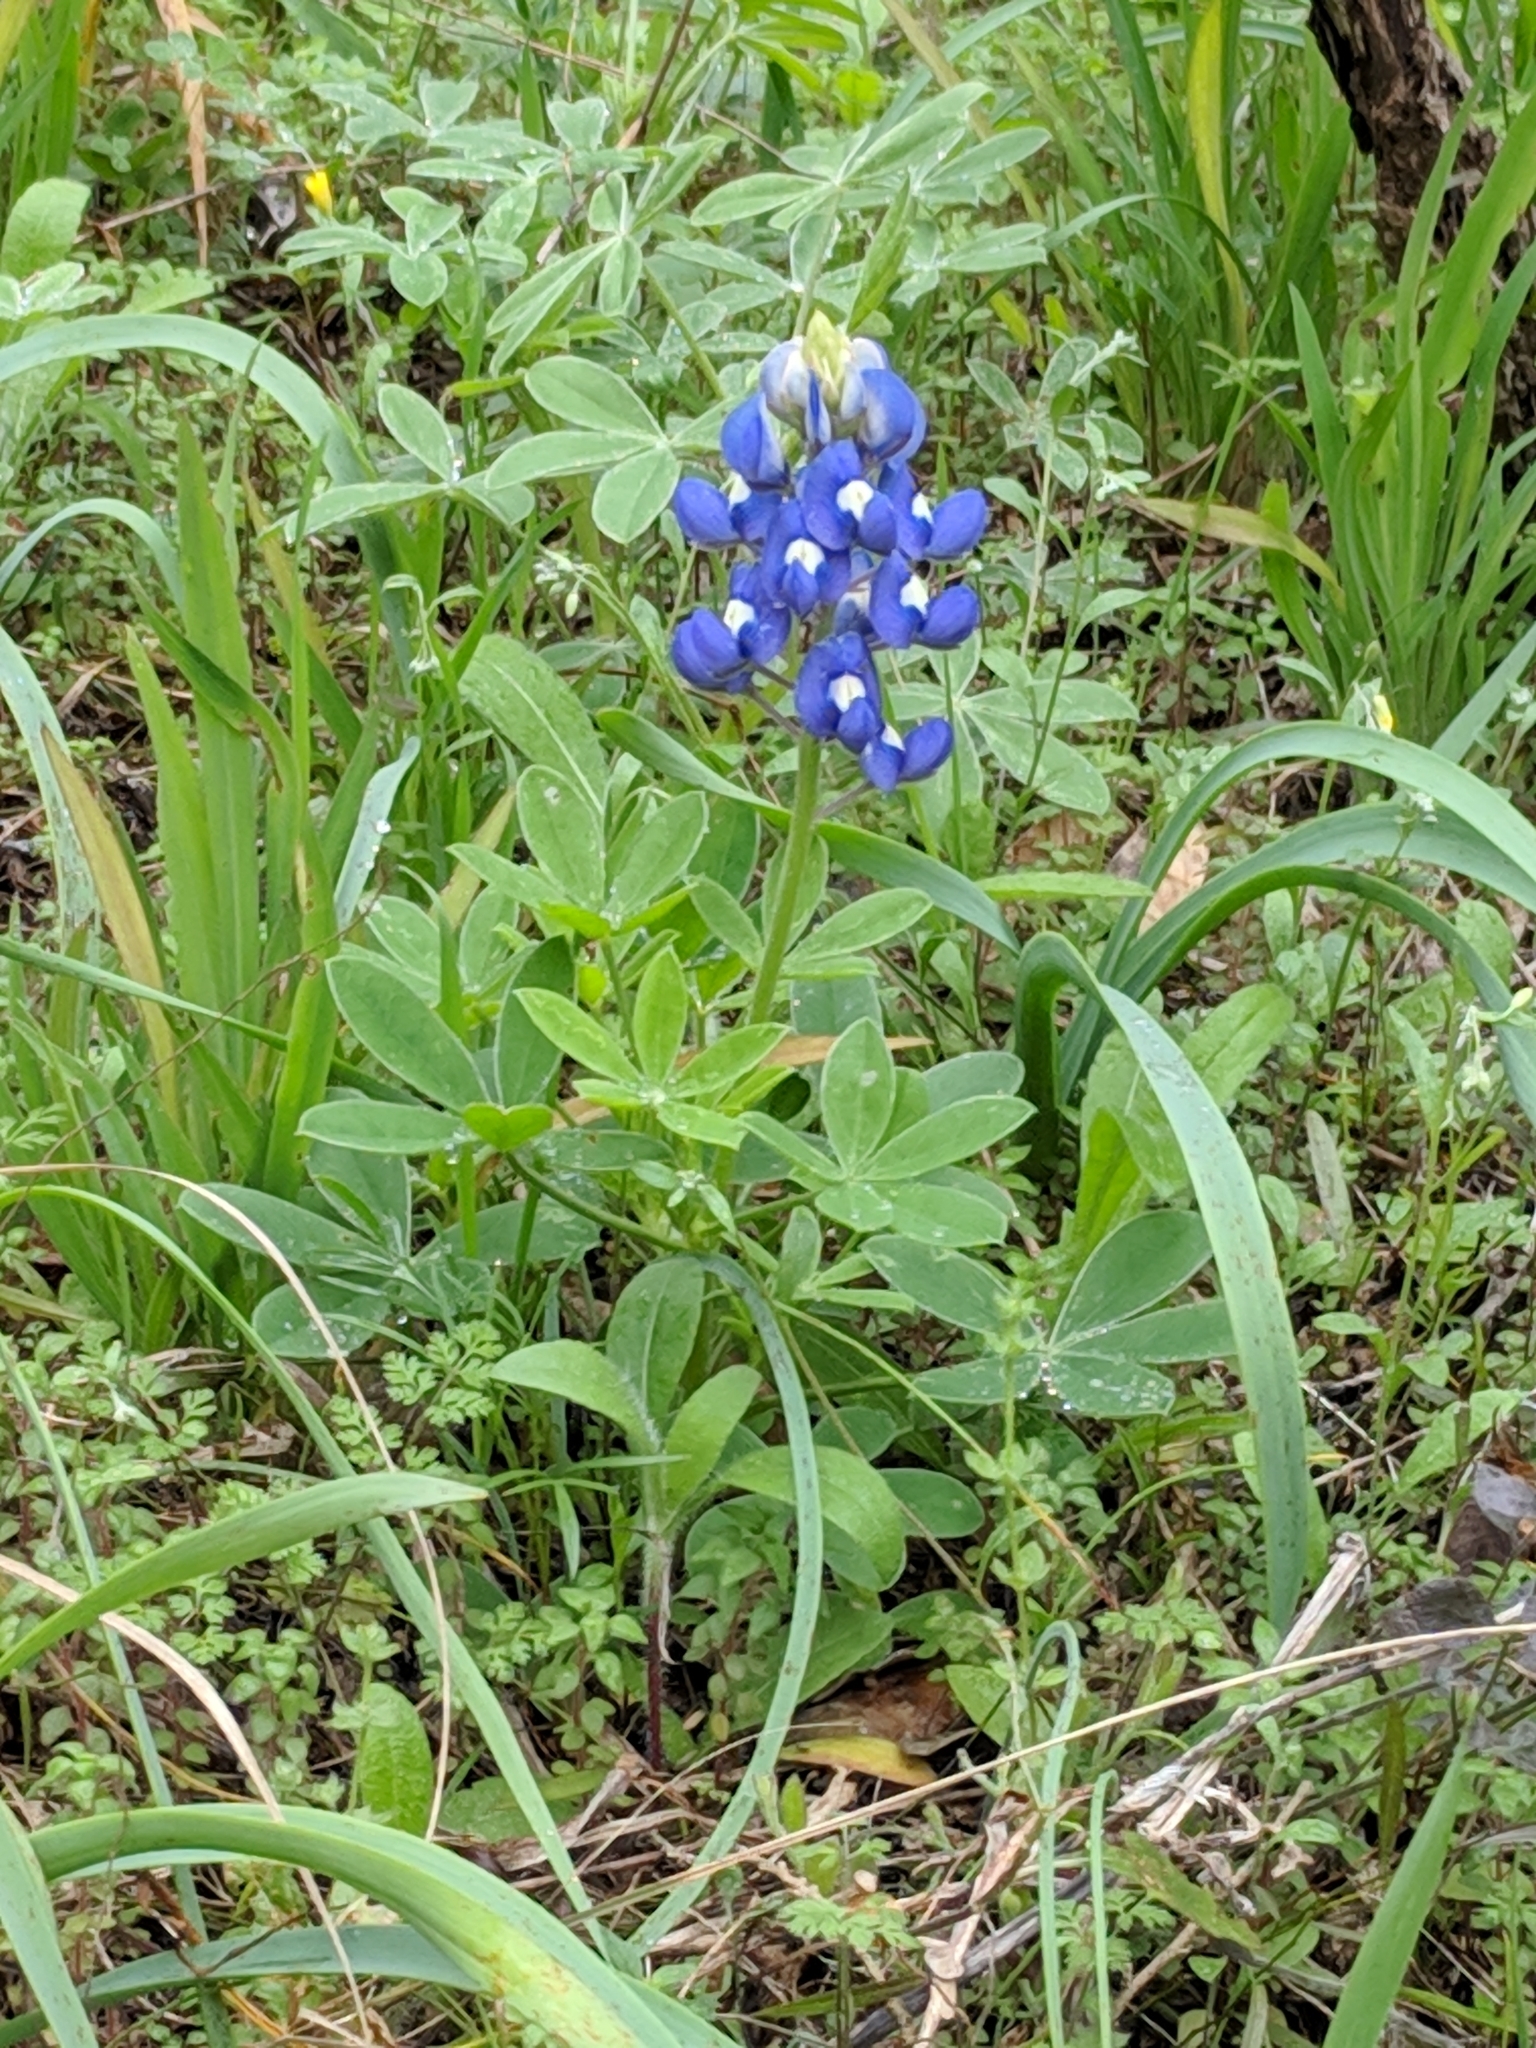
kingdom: Plantae
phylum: Tracheophyta
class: Magnoliopsida
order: Fabales
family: Fabaceae
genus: Lupinus
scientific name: Lupinus texensis
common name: Texas bluebonnet
